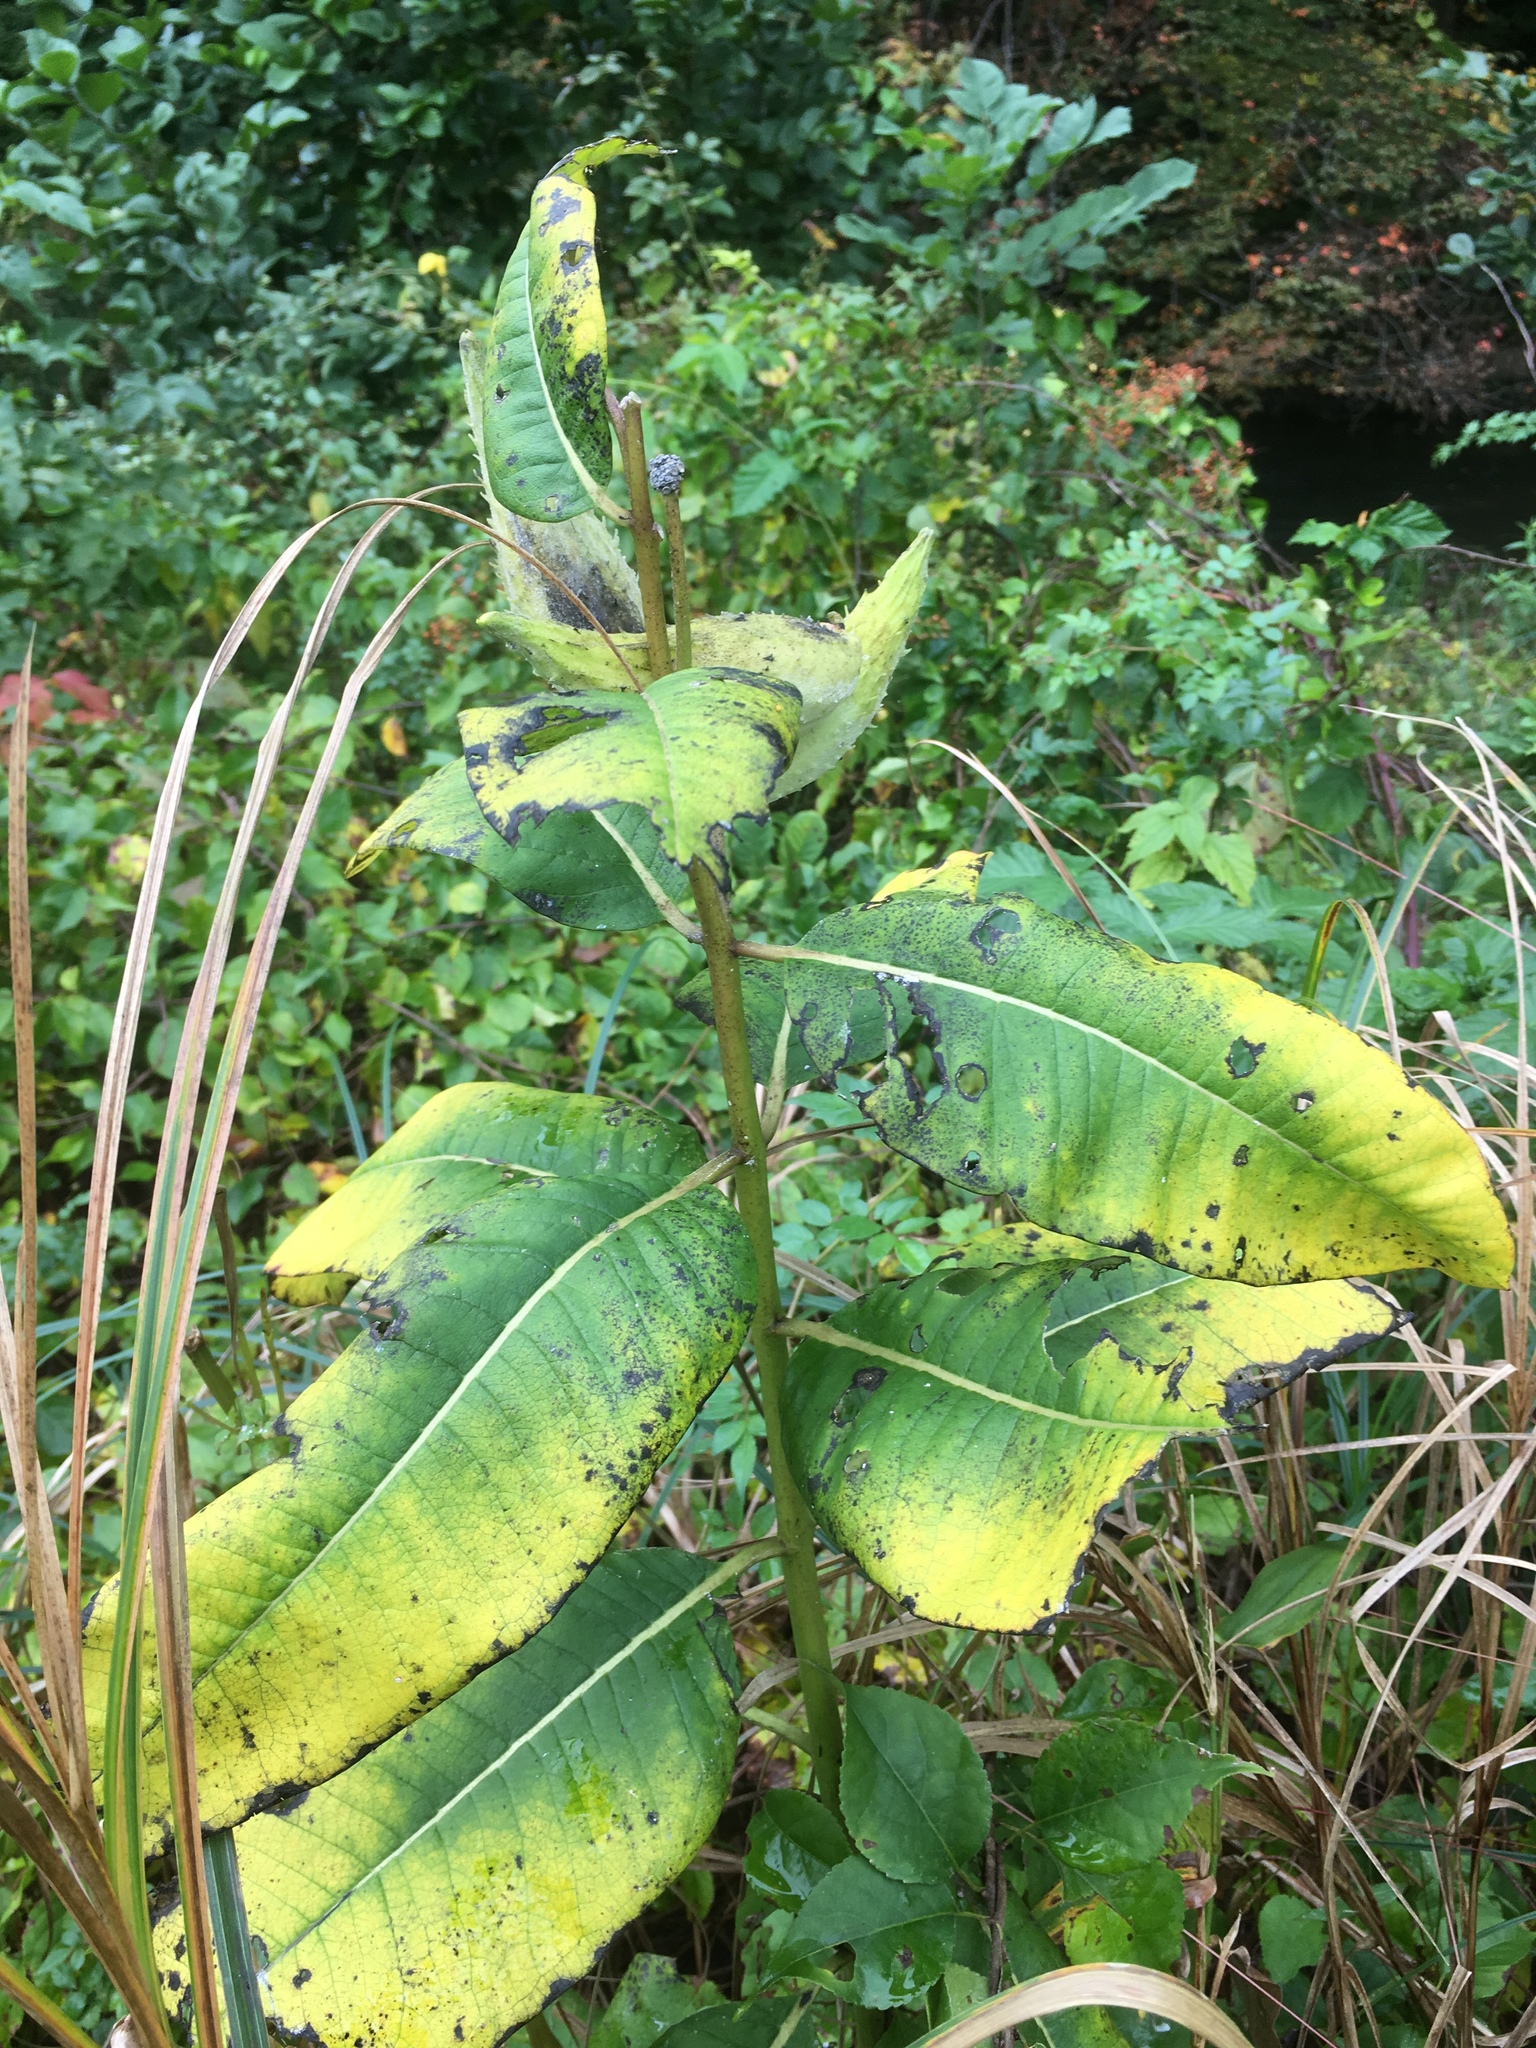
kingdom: Plantae
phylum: Tracheophyta
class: Magnoliopsida
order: Gentianales
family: Apocynaceae
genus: Asclepias
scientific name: Asclepias syriaca
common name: Common milkweed
